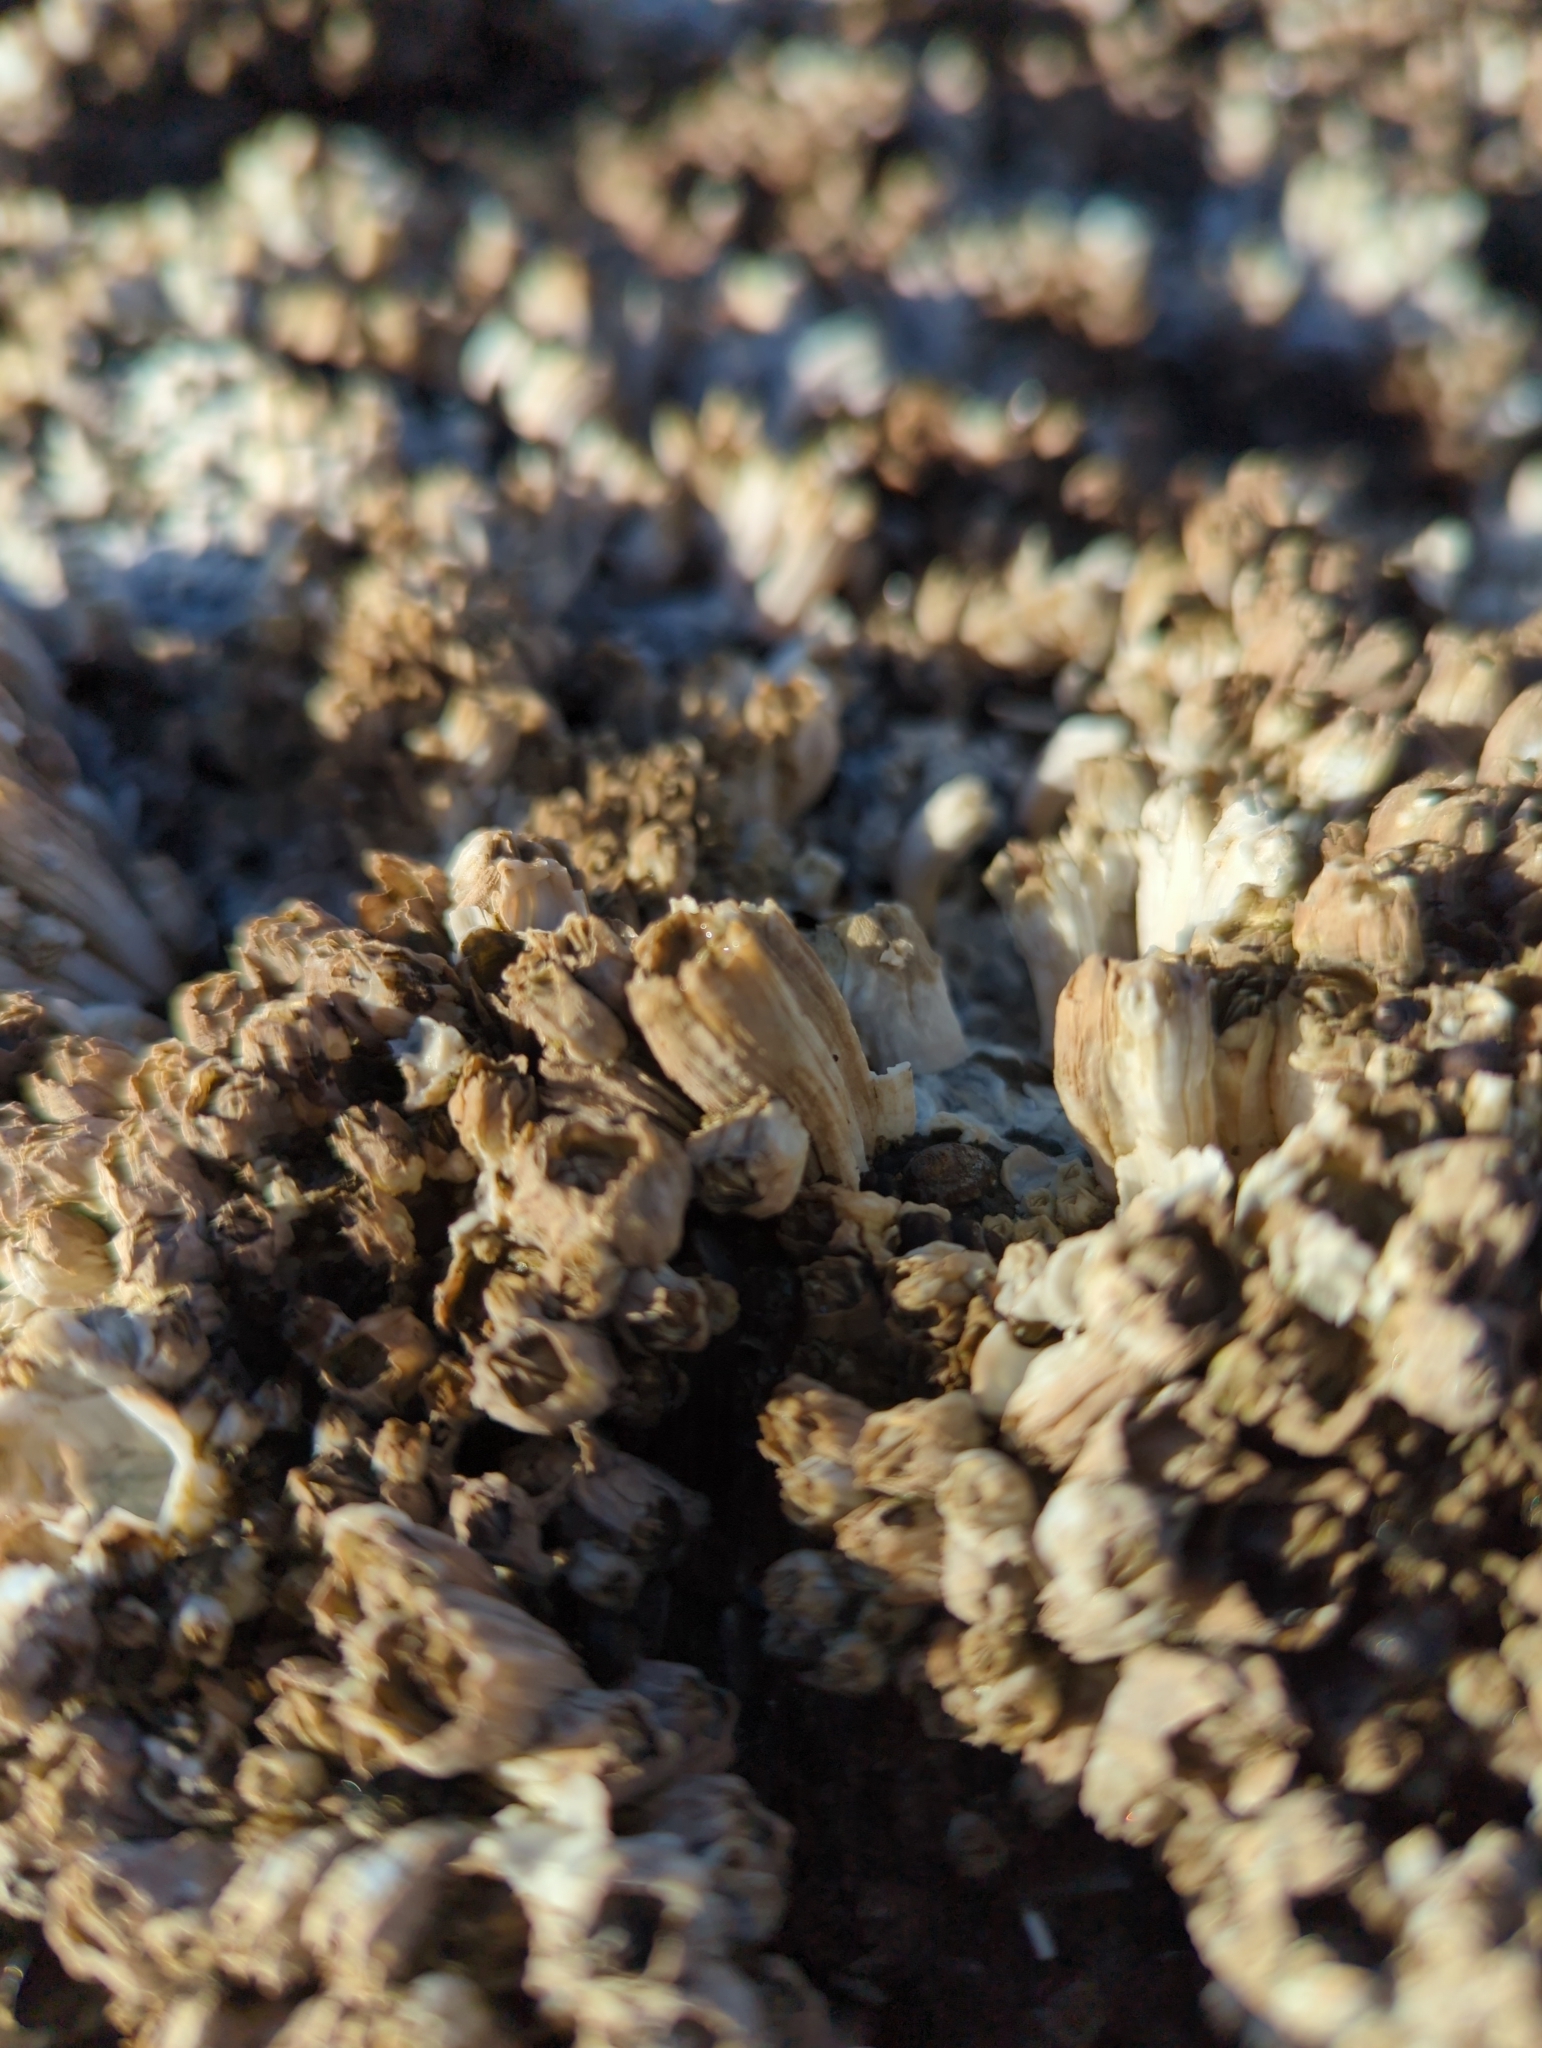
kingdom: Animalia
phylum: Arthropoda
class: Maxillopoda
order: Sessilia
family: Balanidae
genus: Balanus
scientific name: Balanus glandula
